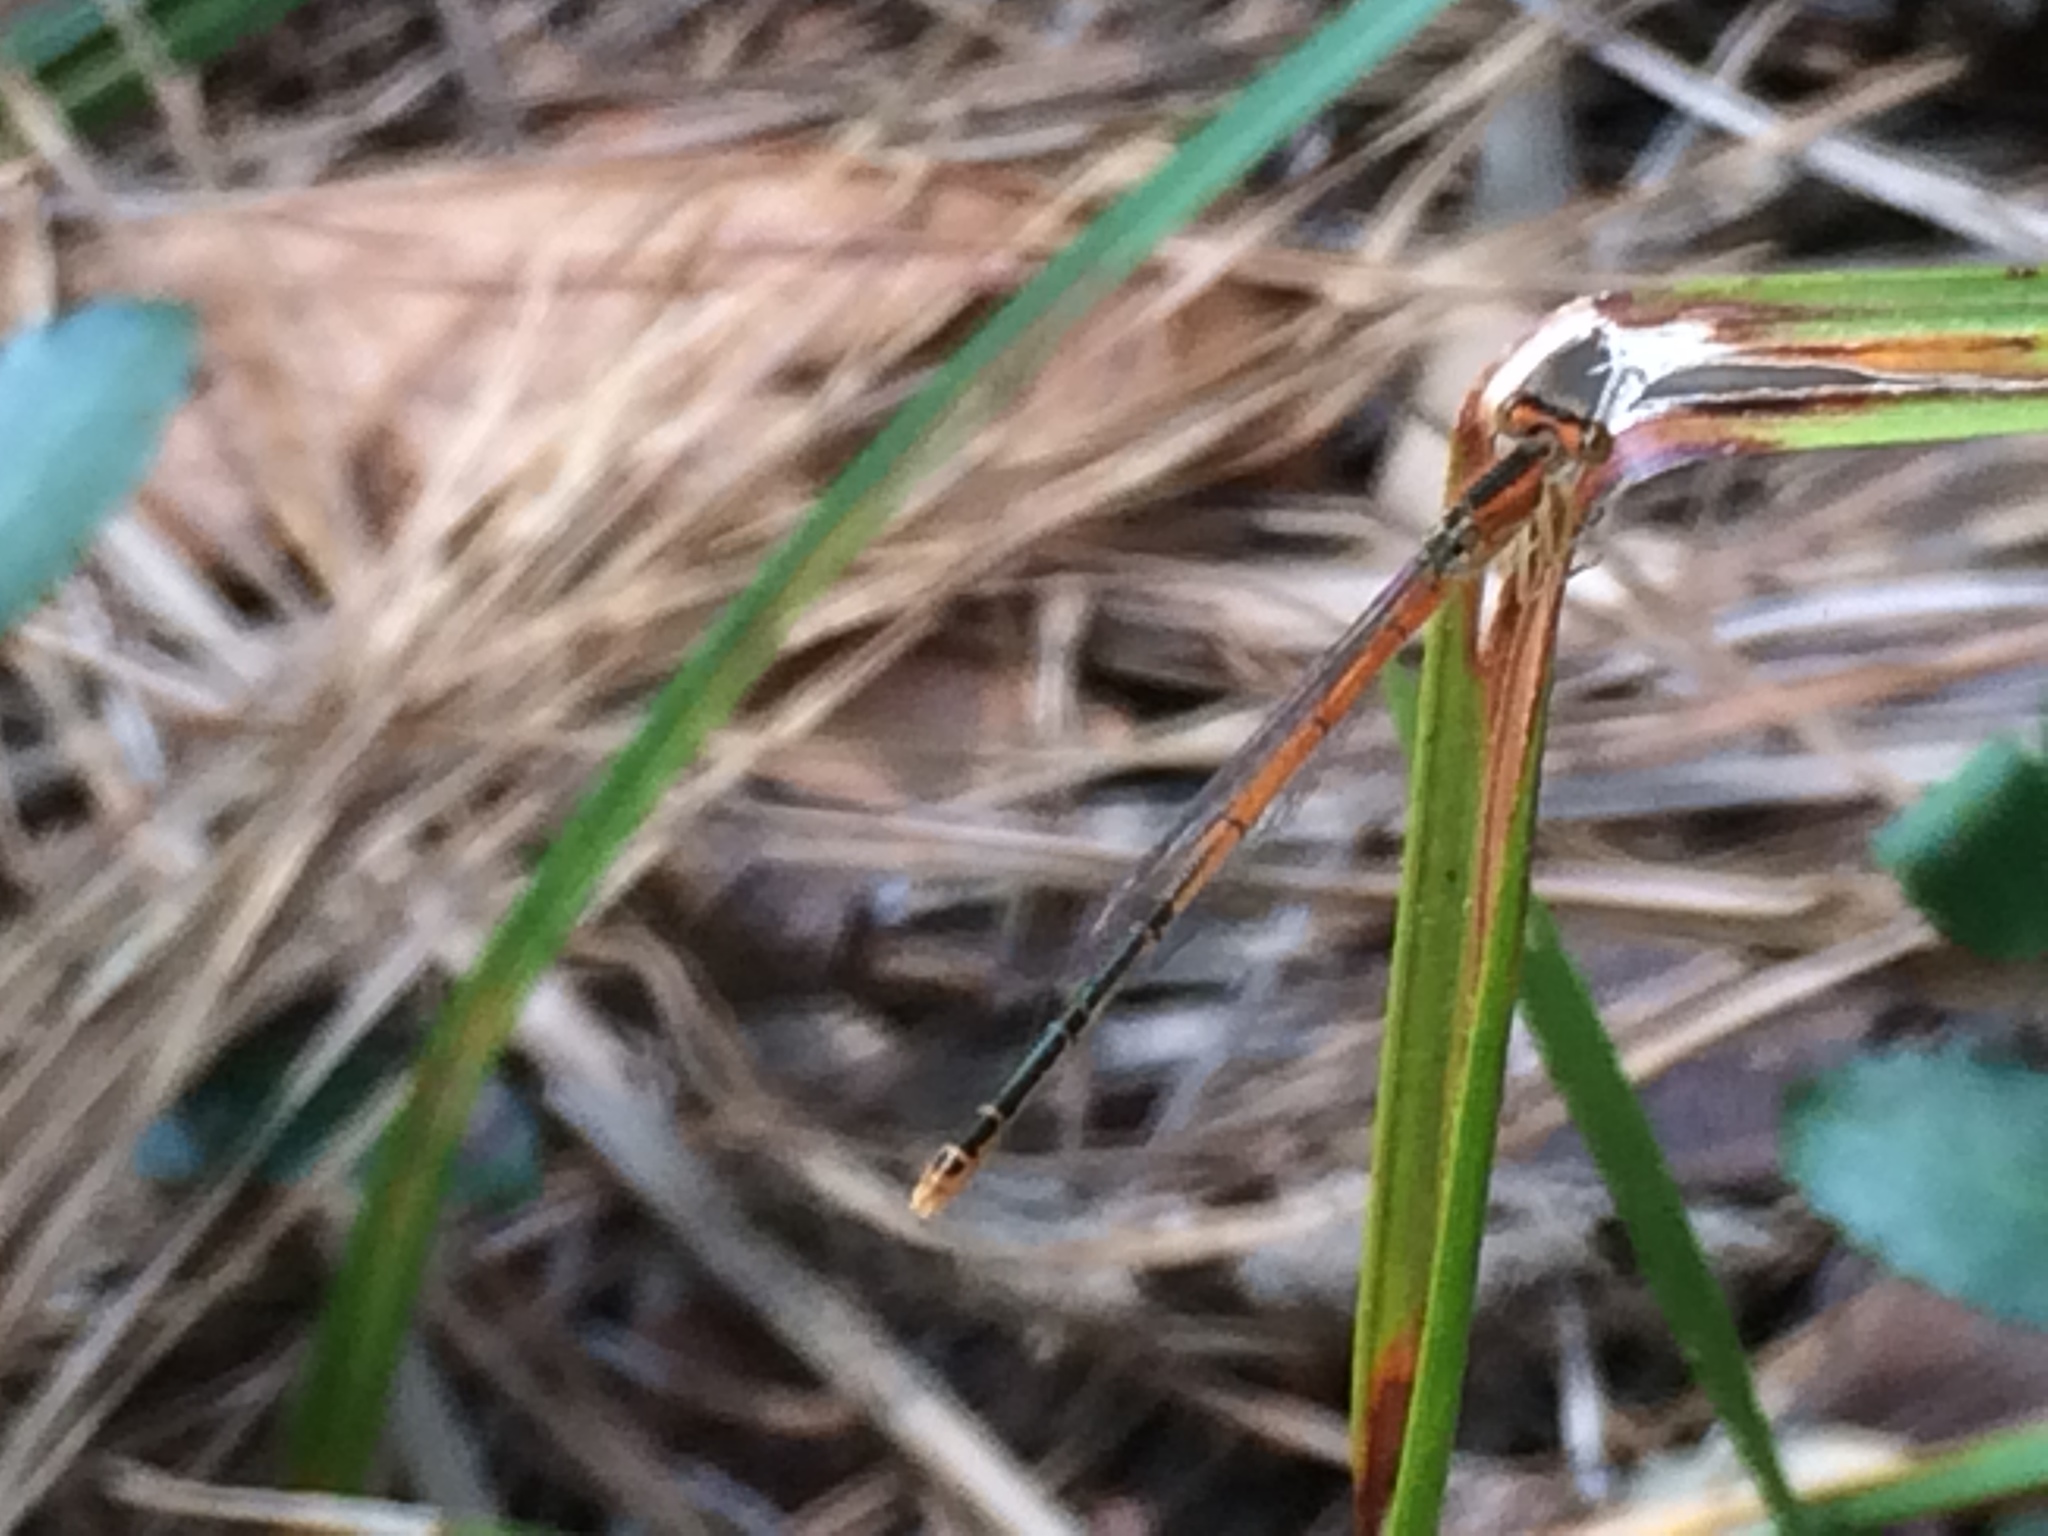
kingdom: Animalia
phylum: Arthropoda
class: Insecta
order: Odonata
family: Coenagrionidae
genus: Ischnura
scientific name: Ischnura hastata
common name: Citrine forktail
